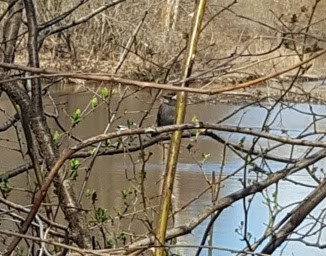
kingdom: Animalia
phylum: Chordata
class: Aves
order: Passeriformes
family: Passerellidae
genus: Zonotrichia
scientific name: Zonotrichia albicollis
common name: White-throated sparrow
